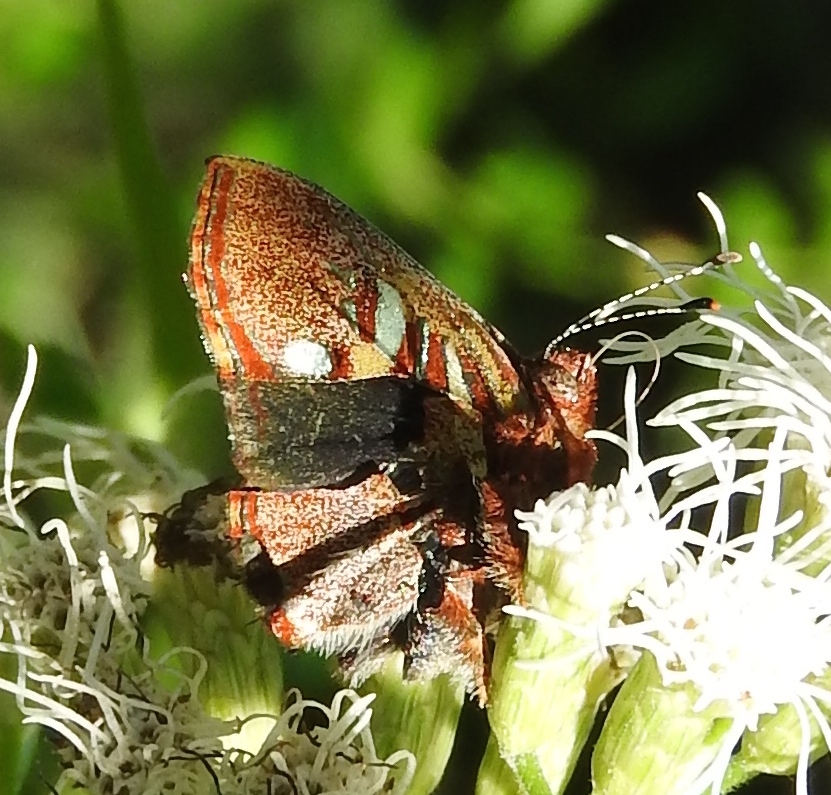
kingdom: Animalia
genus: Anteros
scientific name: Anteros carausius
